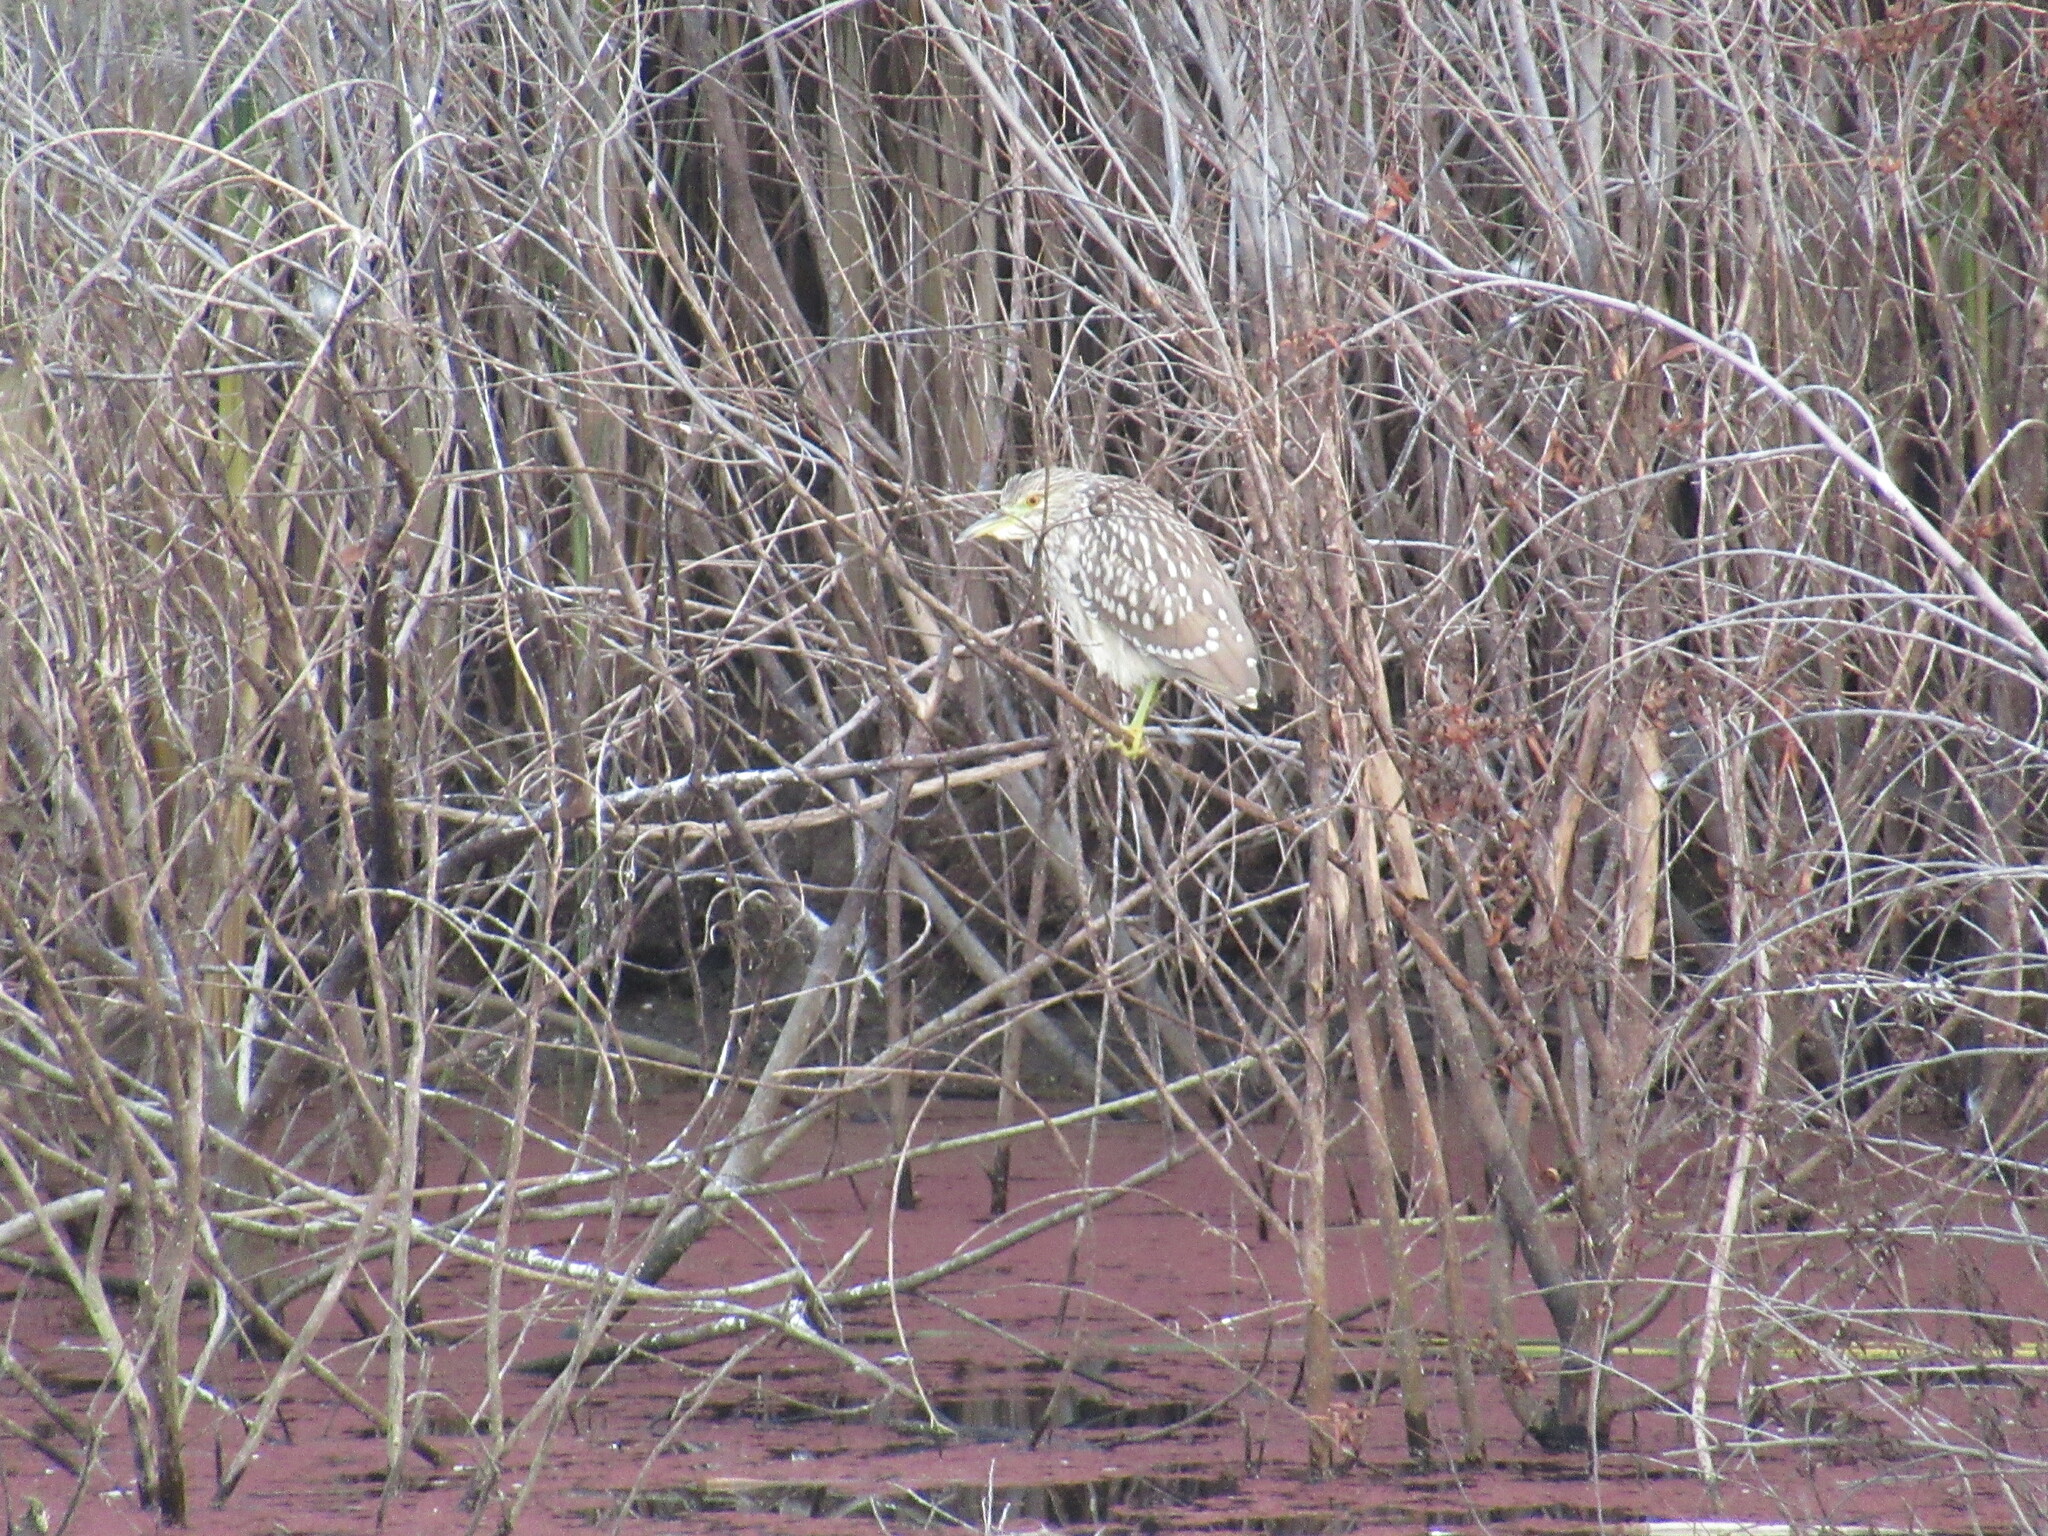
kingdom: Animalia
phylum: Chordata
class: Aves
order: Pelecaniformes
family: Ardeidae
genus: Nycticorax
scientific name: Nycticorax nycticorax
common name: Black-crowned night heron
